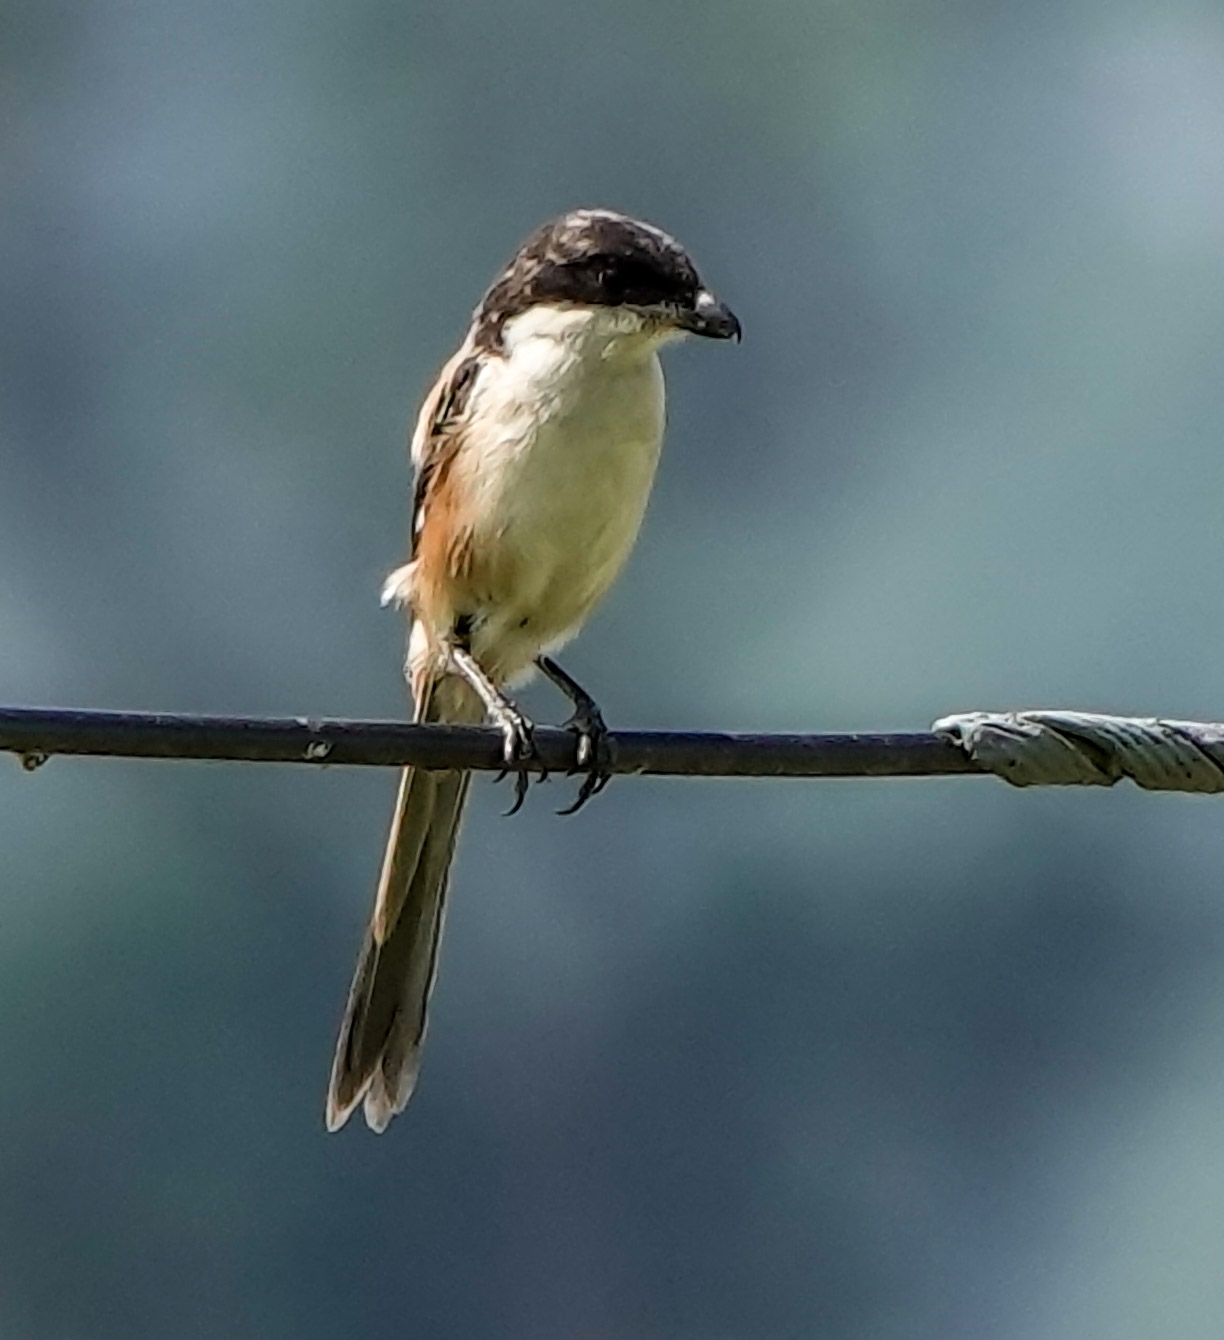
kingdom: Animalia
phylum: Chordata
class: Aves
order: Passeriformes
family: Laniidae
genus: Lanius
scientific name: Lanius schach
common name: Long-tailed shrike
